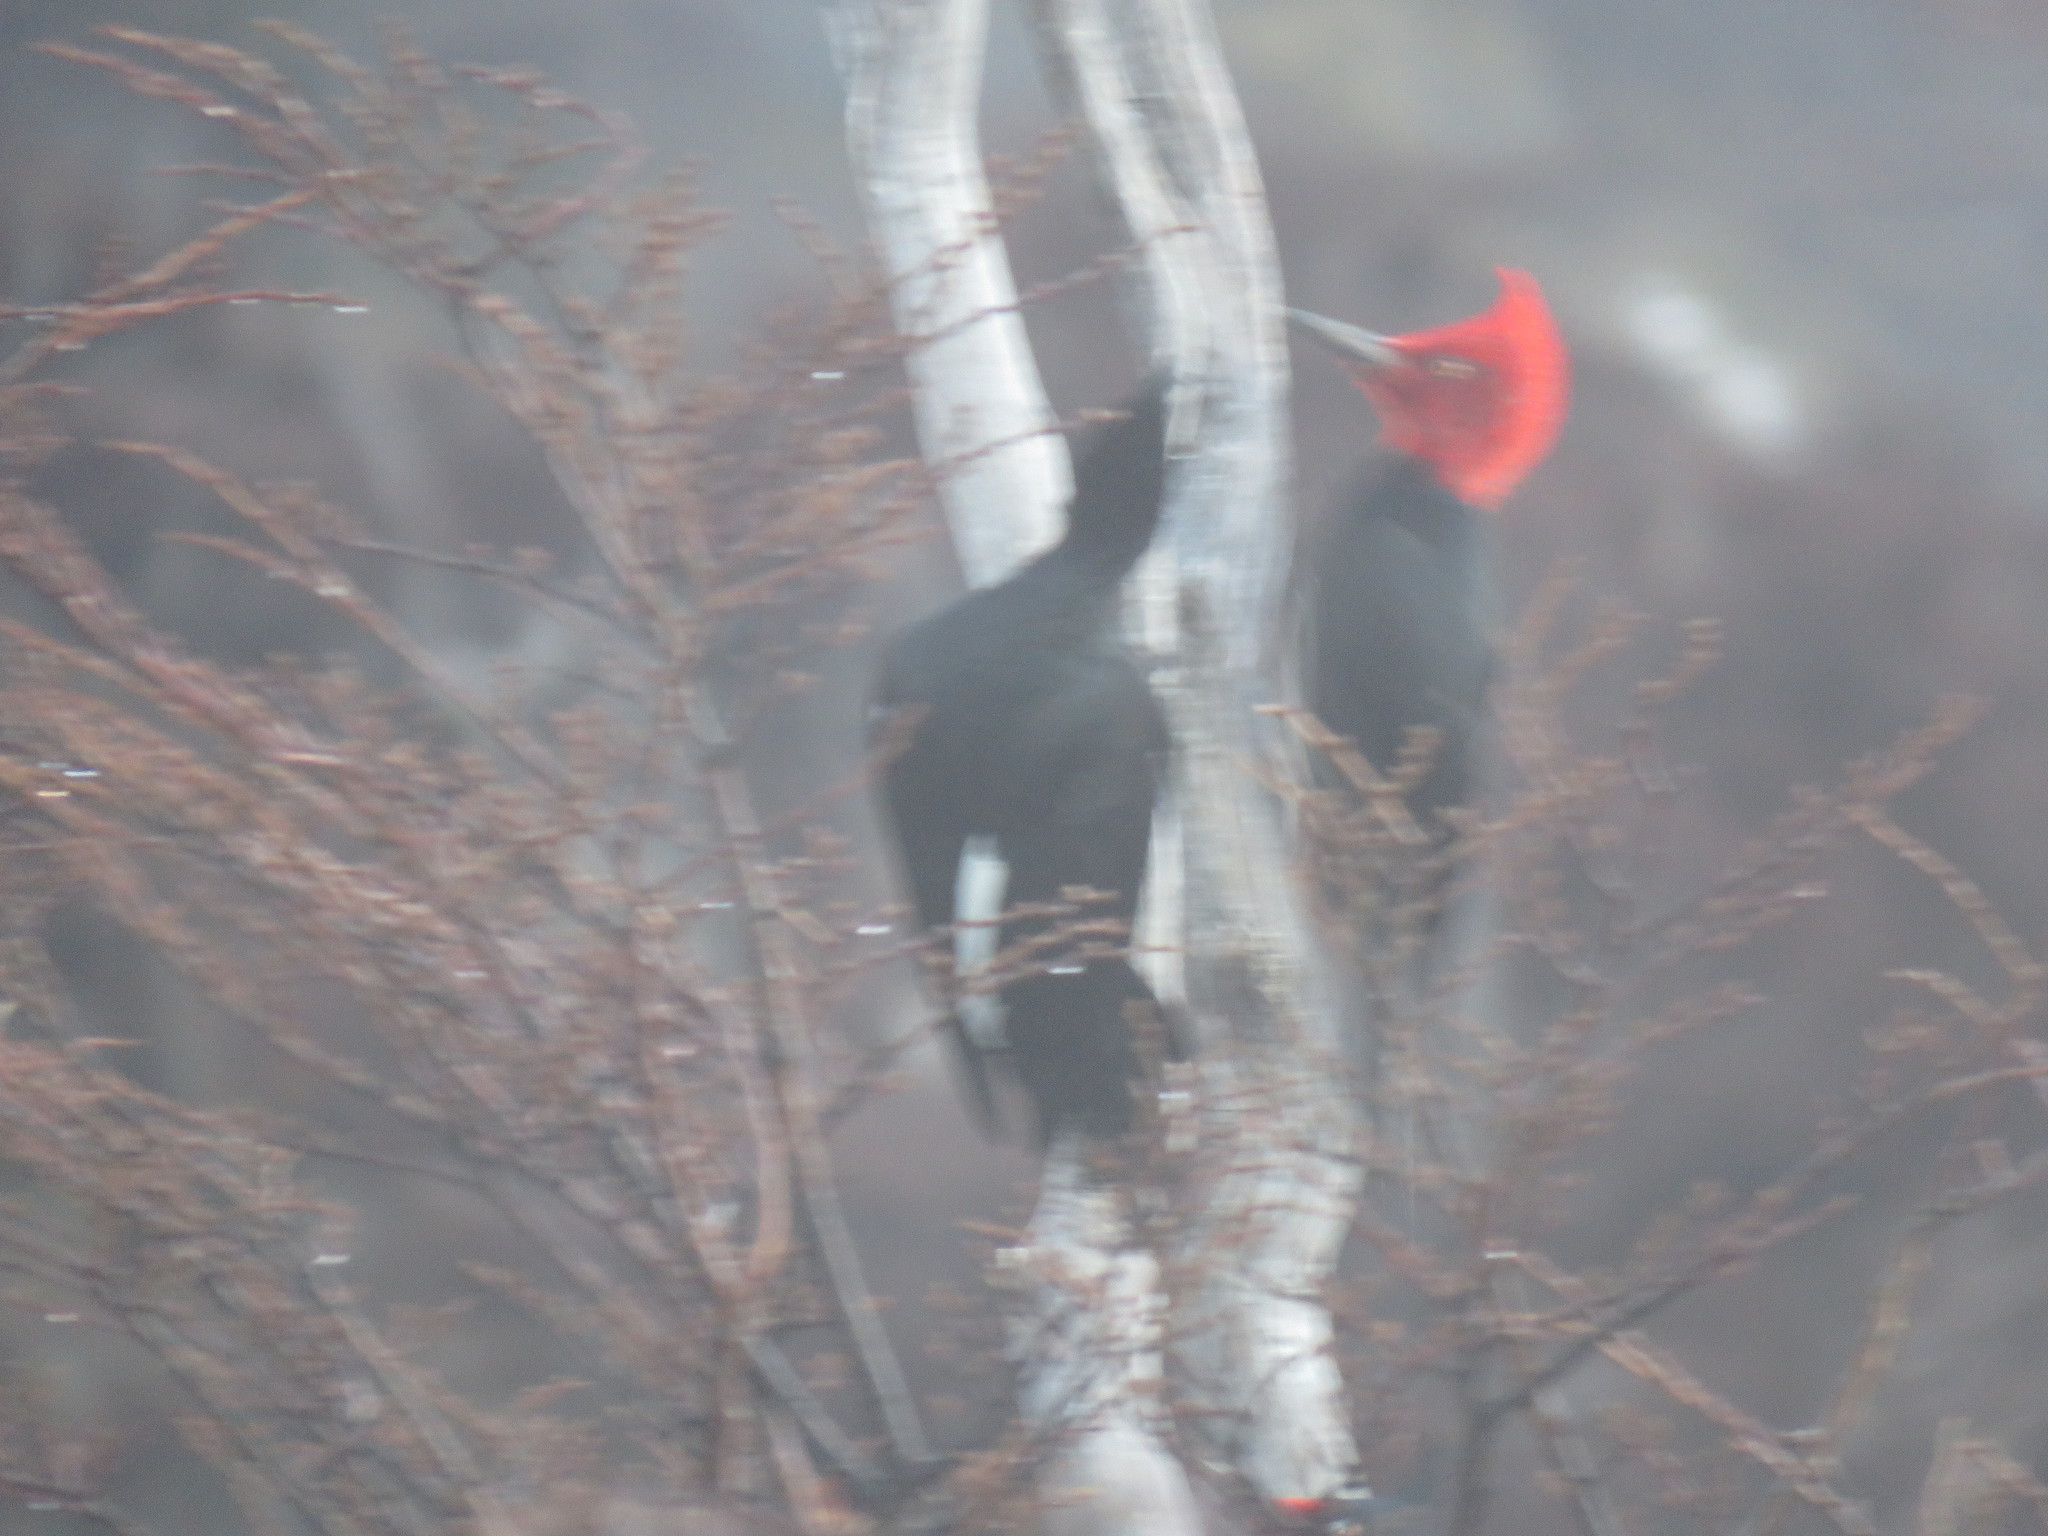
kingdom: Animalia
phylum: Chordata
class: Aves
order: Piciformes
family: Picidae
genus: Campephilus
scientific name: Campephilus magellanicus
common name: Magellanic woodpecker
